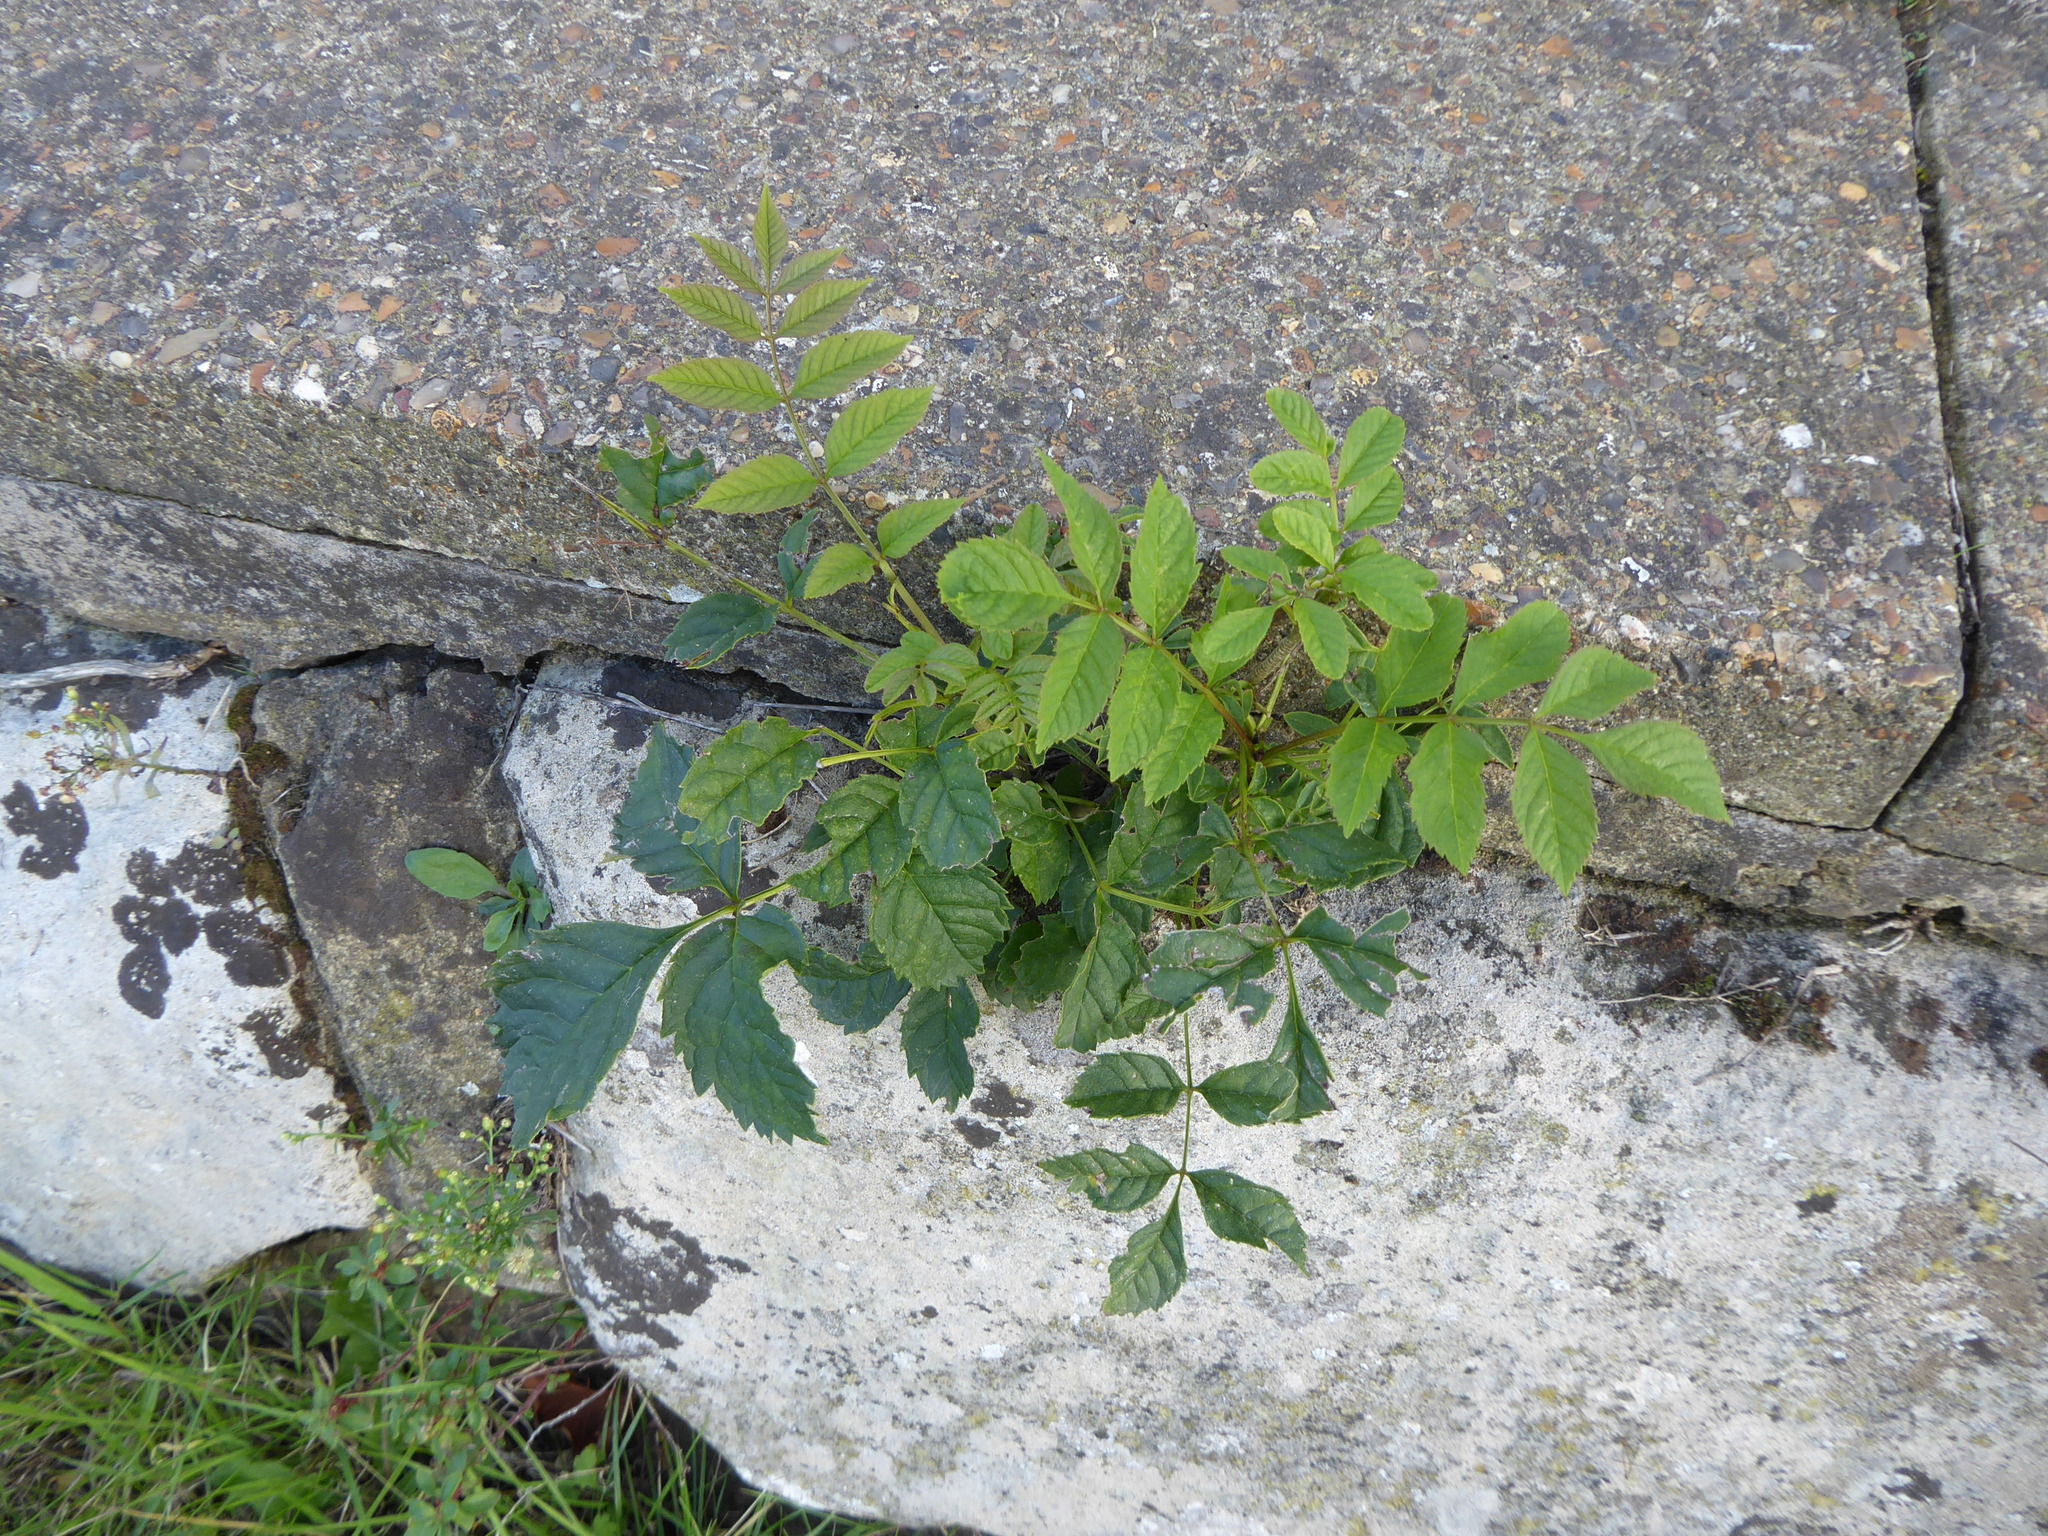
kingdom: Plantae
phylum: Tracheophyta
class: Magnoliopsida
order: Lamiales
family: Oleaceae
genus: Fraxinus
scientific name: Fraxinus excelsior
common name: European ash
